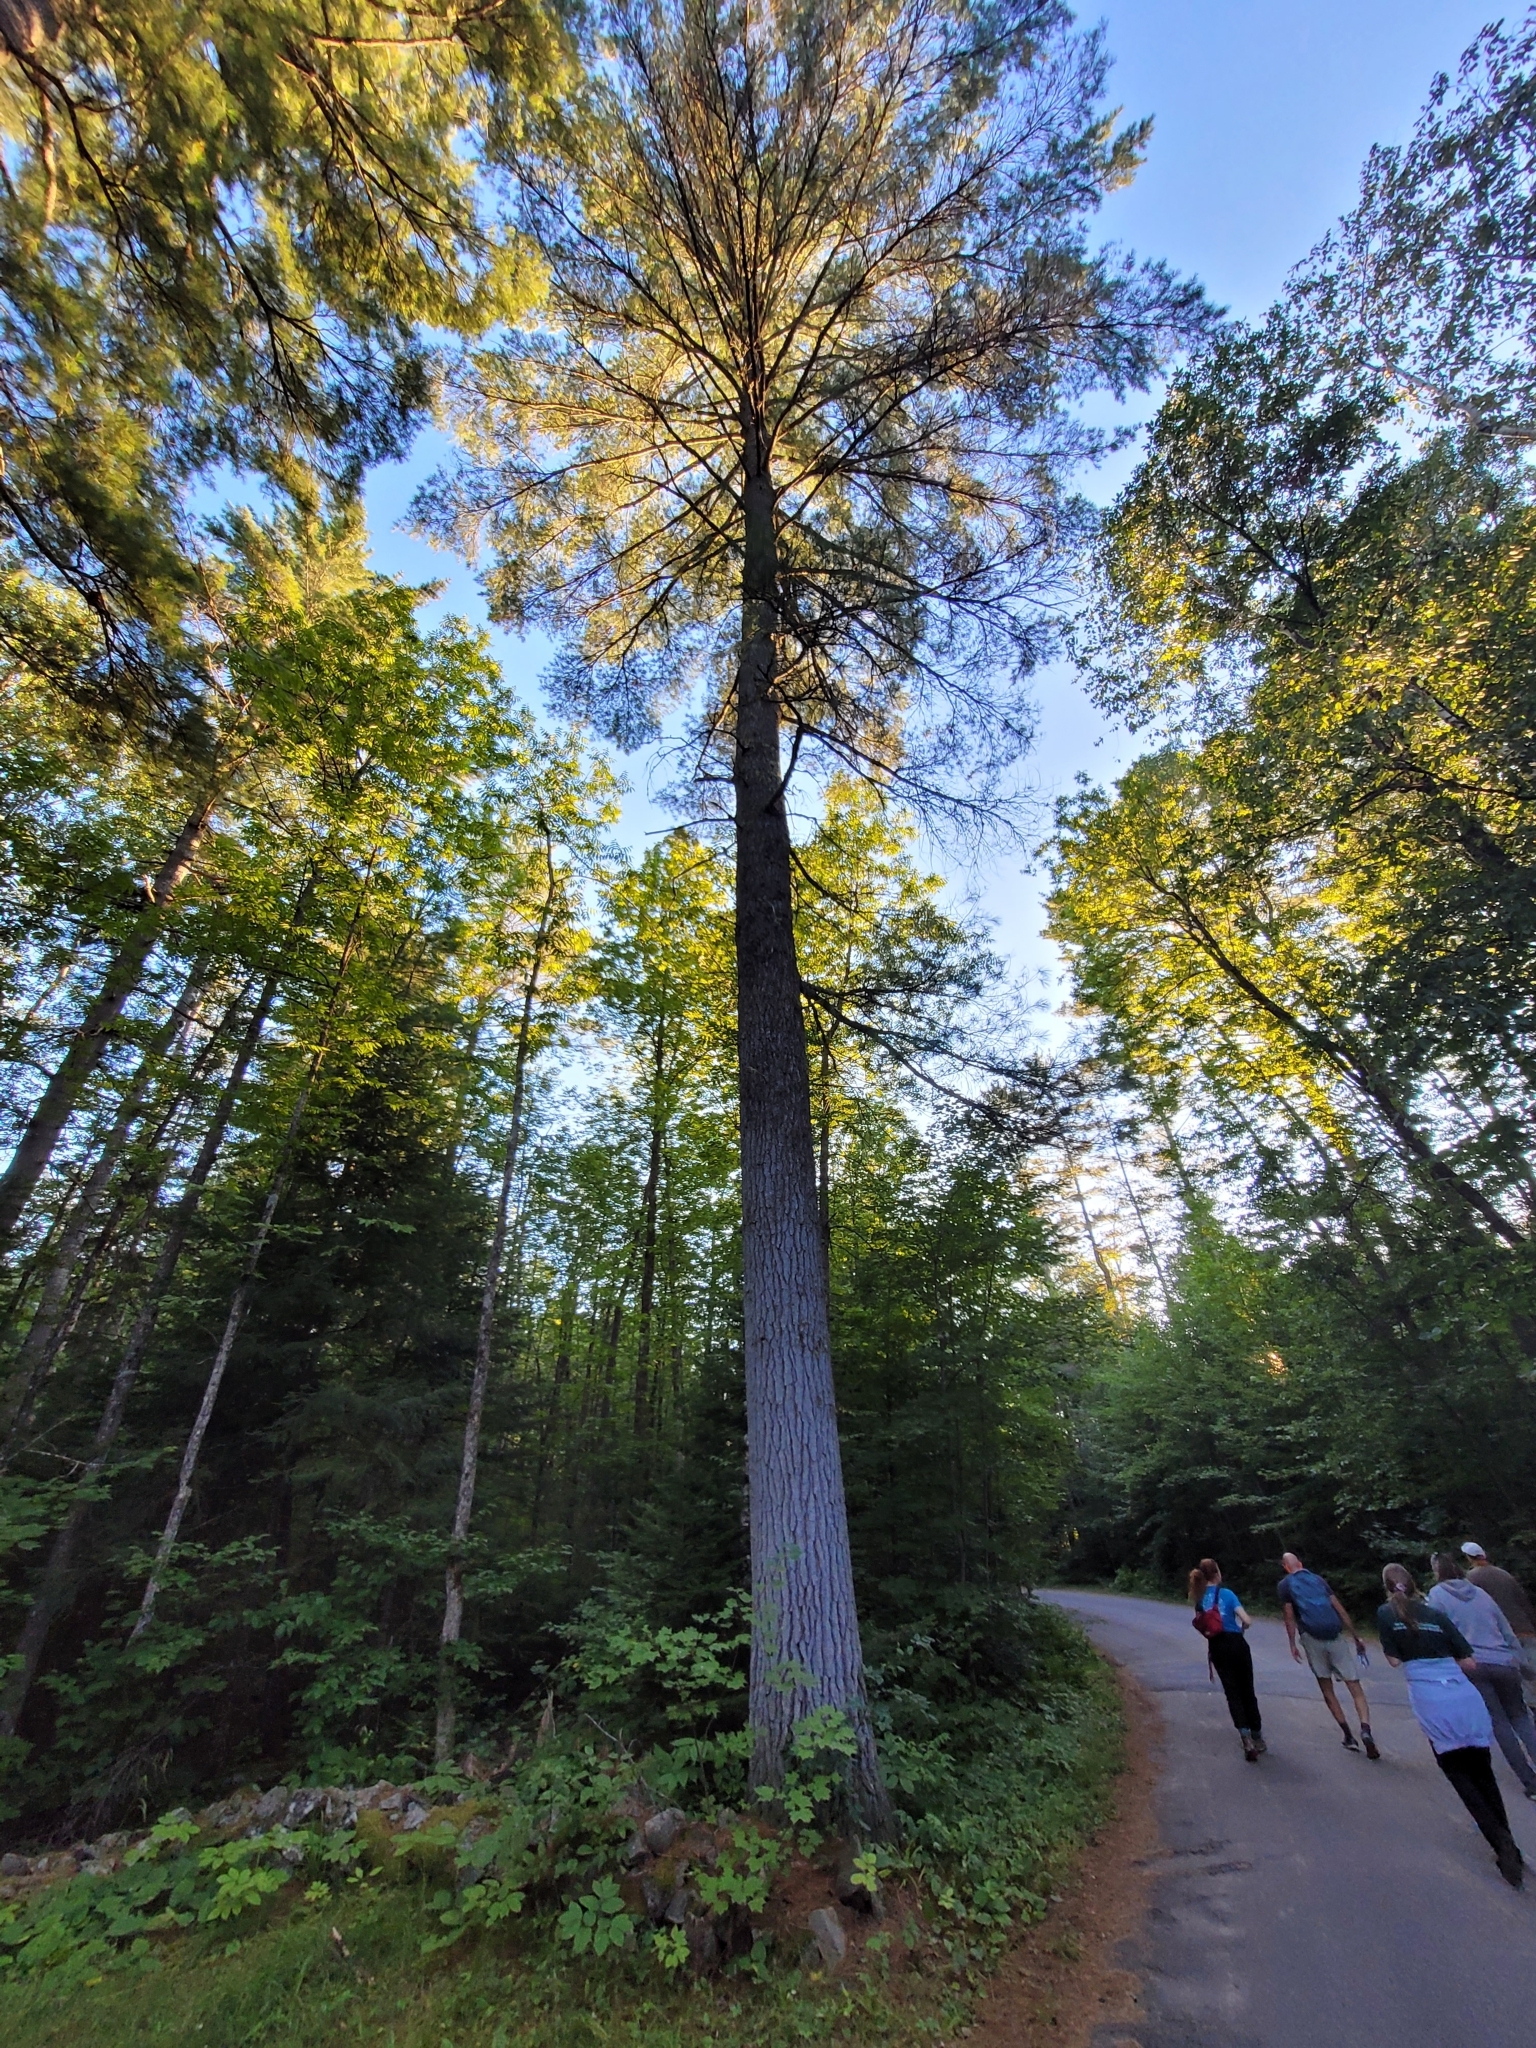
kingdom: Plantae
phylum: Tracheophyta
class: Pinopsida
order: Pinales
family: Pinaceae
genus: Pinus
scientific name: Pinus strobus
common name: Weymouth pine
